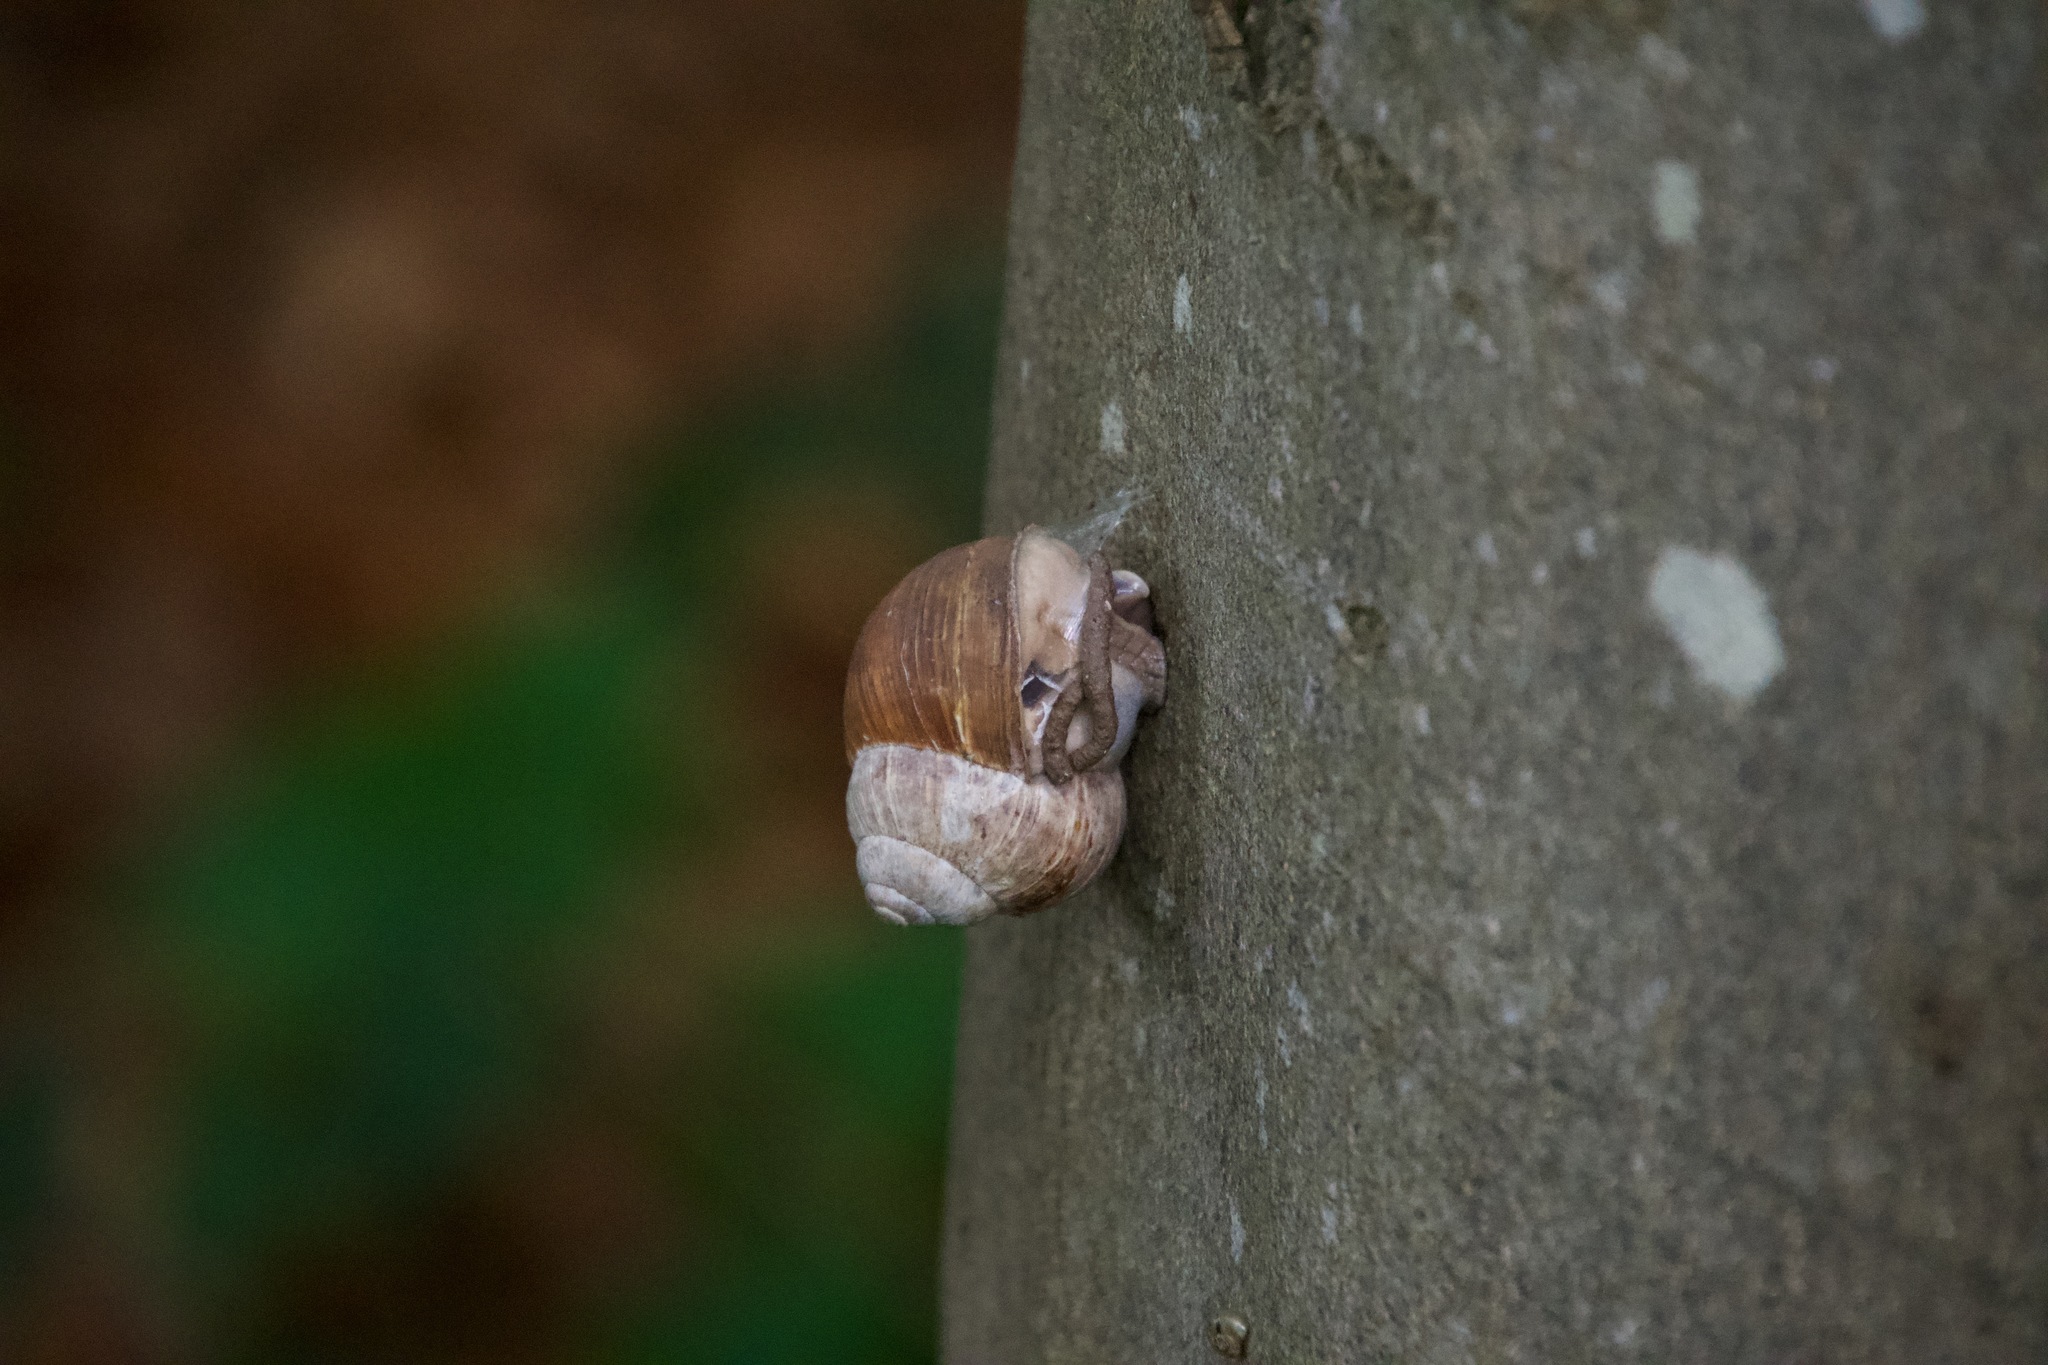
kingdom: Animalia
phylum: Mollusca
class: Gastropoda
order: Stylommatophora
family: Helicidae
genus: Helix
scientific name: Helix pomatia
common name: Roman snail
